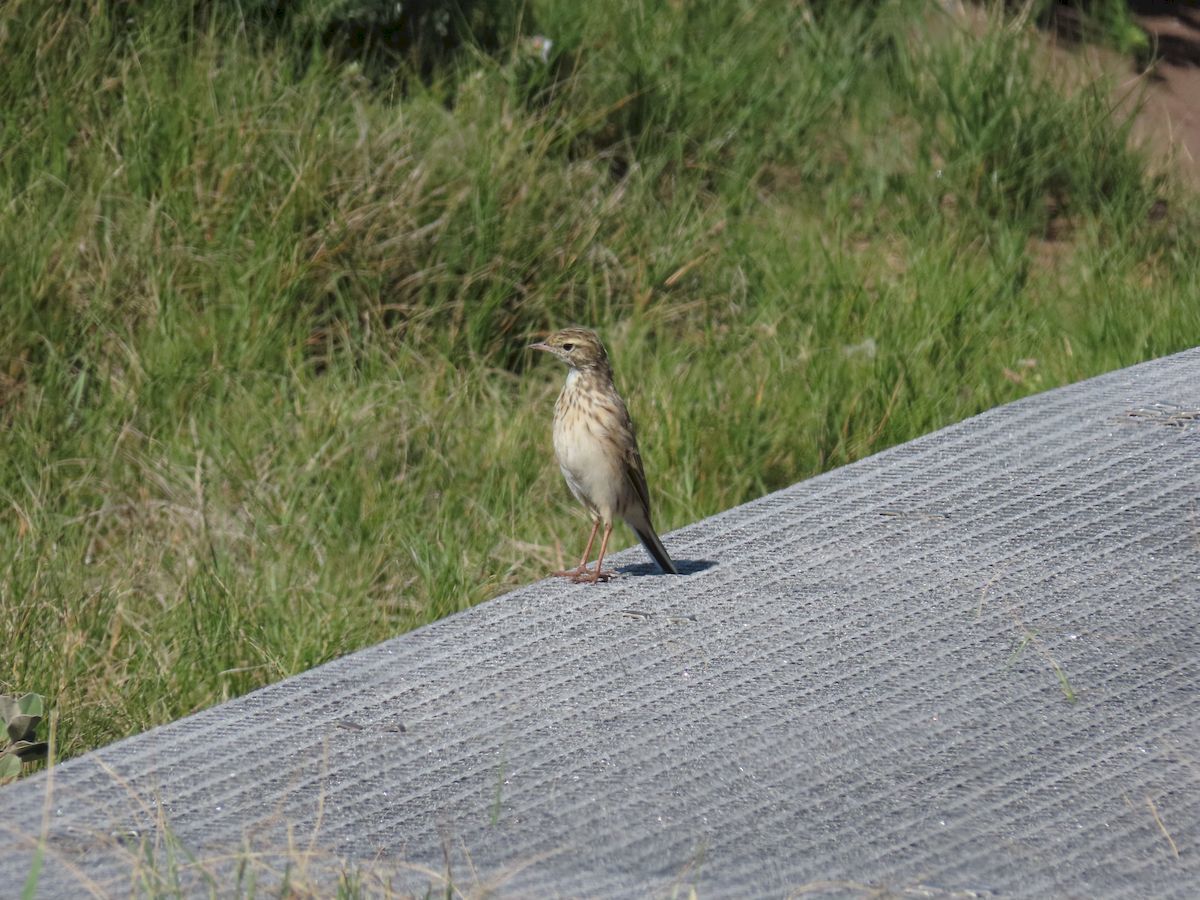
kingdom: Animalia
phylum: Chordata
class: Aves
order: Passeriformes
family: Motacillidae
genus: Anthus
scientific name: Anthus australis
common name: Australian pipit
